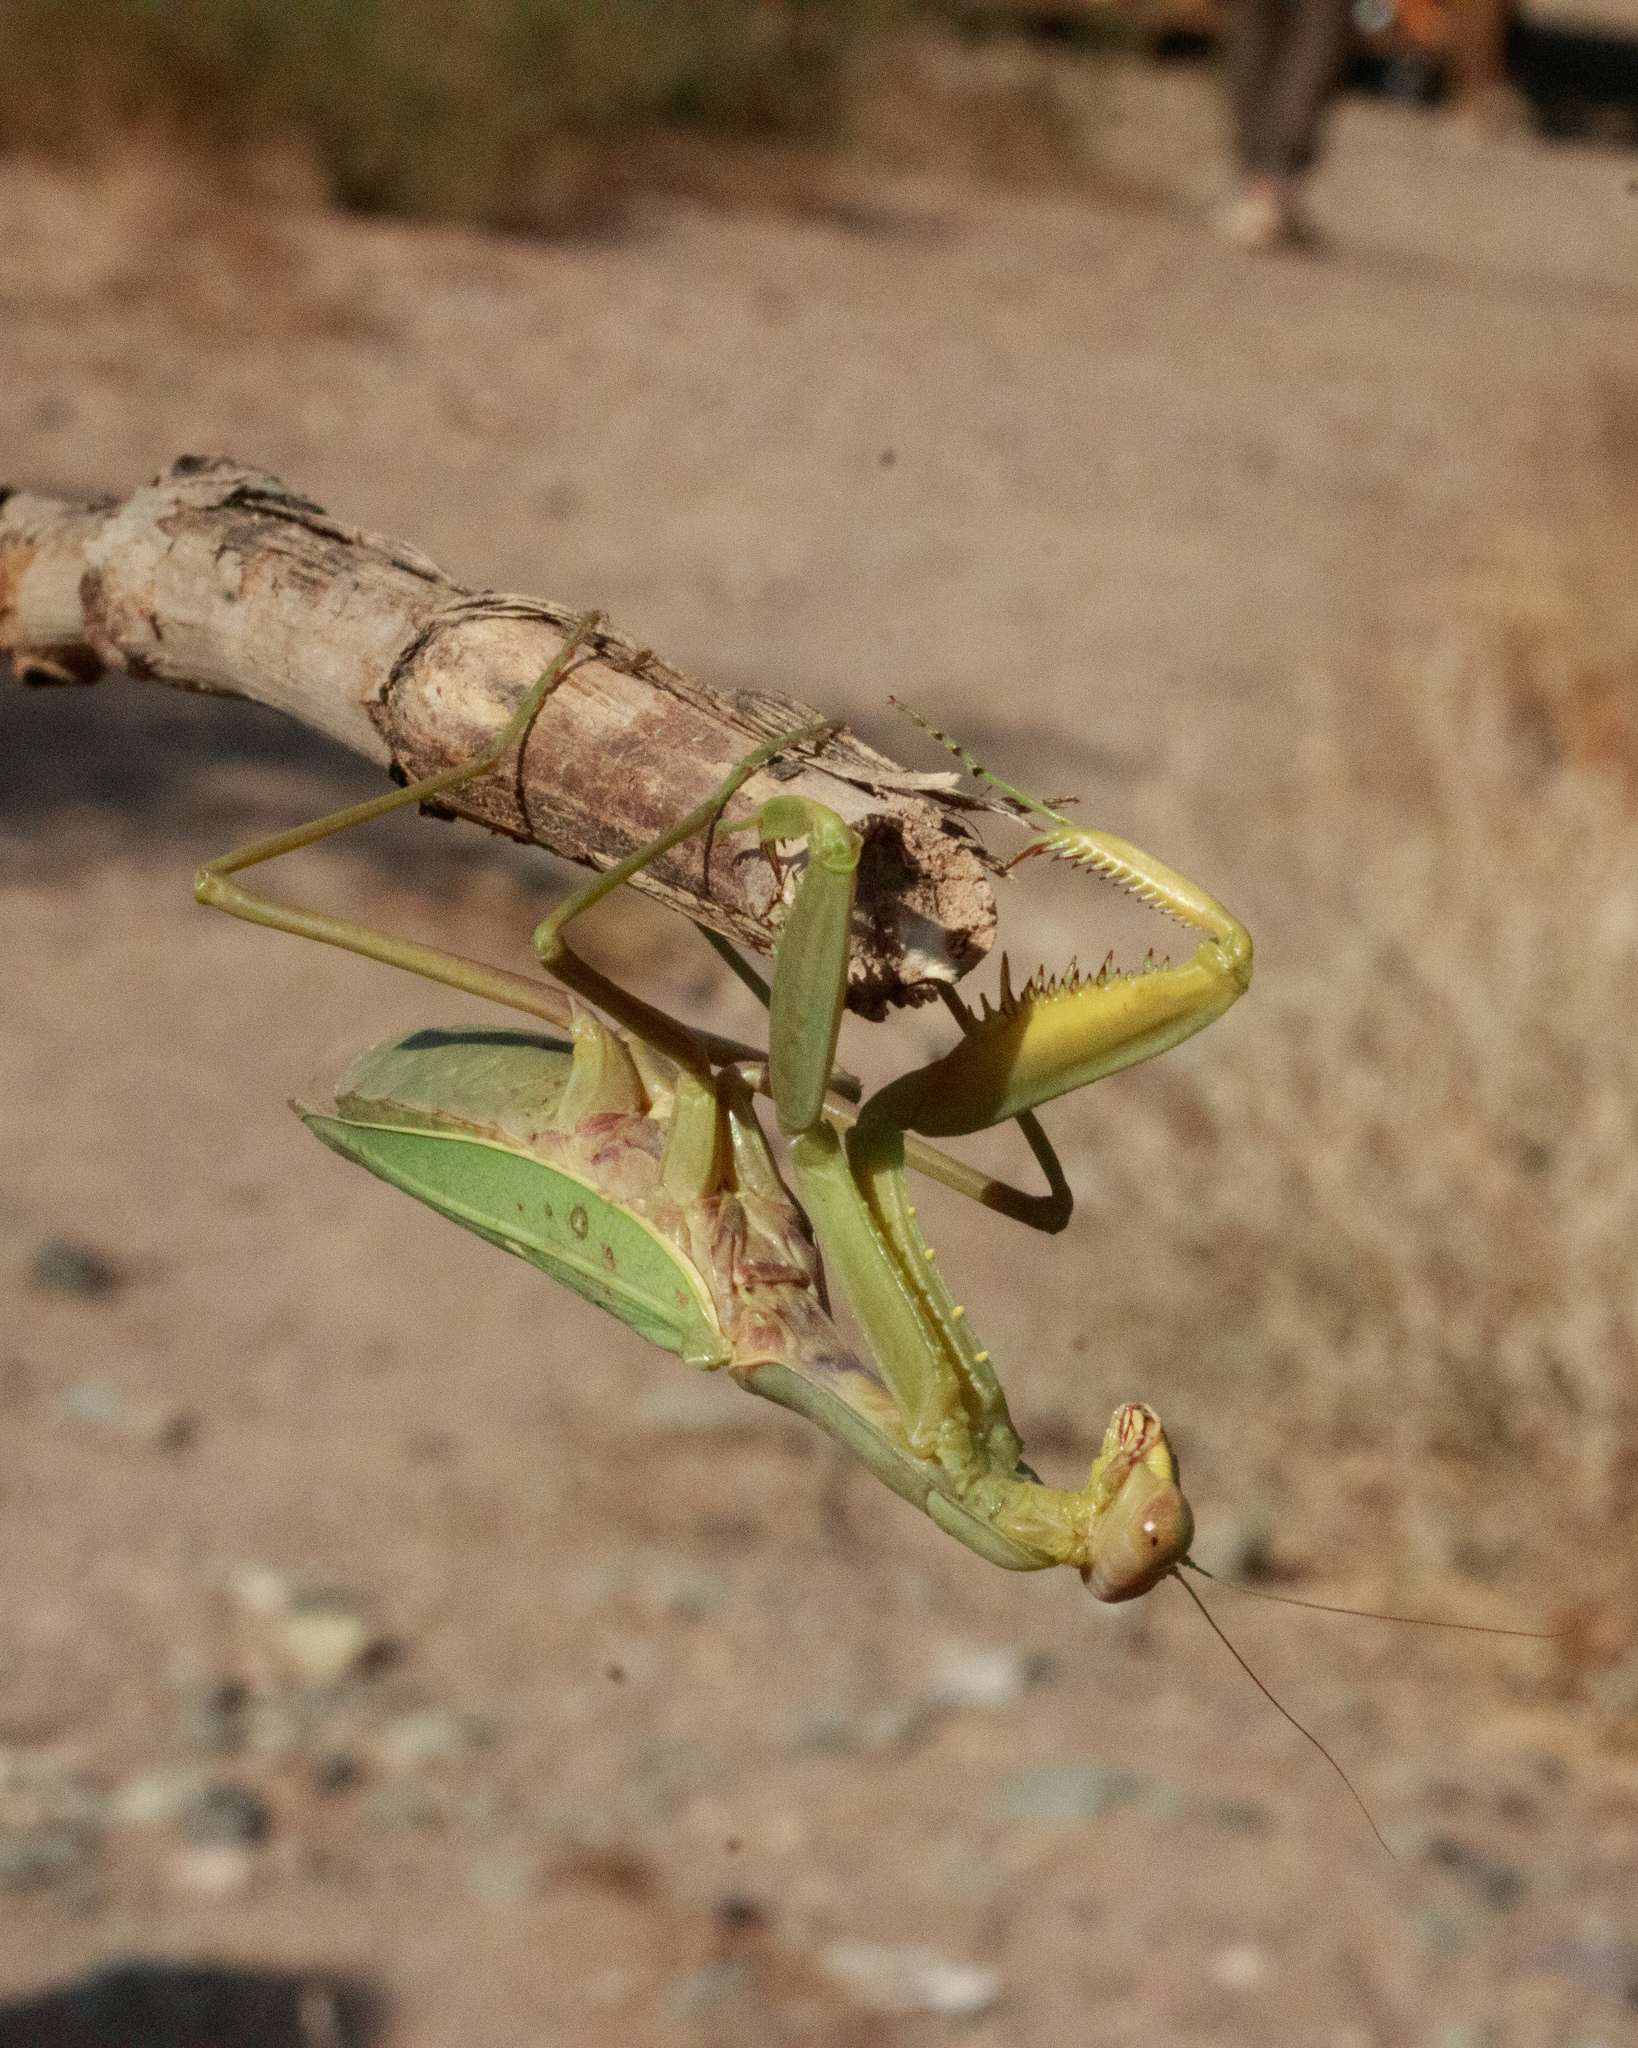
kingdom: Animalia
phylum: Arthropoda
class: Insecta
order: Mantodea
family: Mantidae
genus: Hierodula
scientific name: Hierodula tenuidentata
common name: Giant asian mantis
